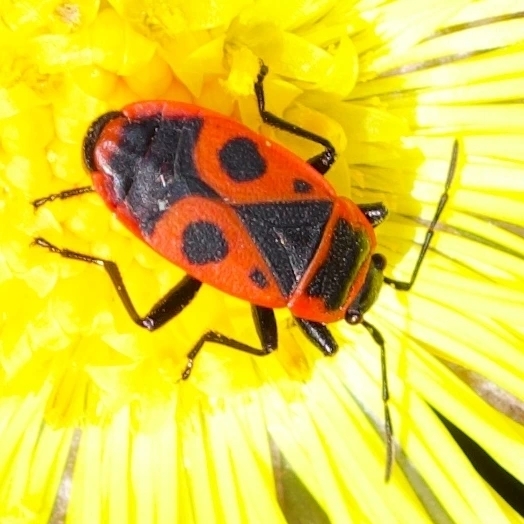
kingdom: Animalia
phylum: Arthropoda
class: Insecta
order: Hemiptera
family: Pyrrhocoridae
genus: Pyrrhocoris
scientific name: Pyrrhocoris apterus
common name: Firebug
